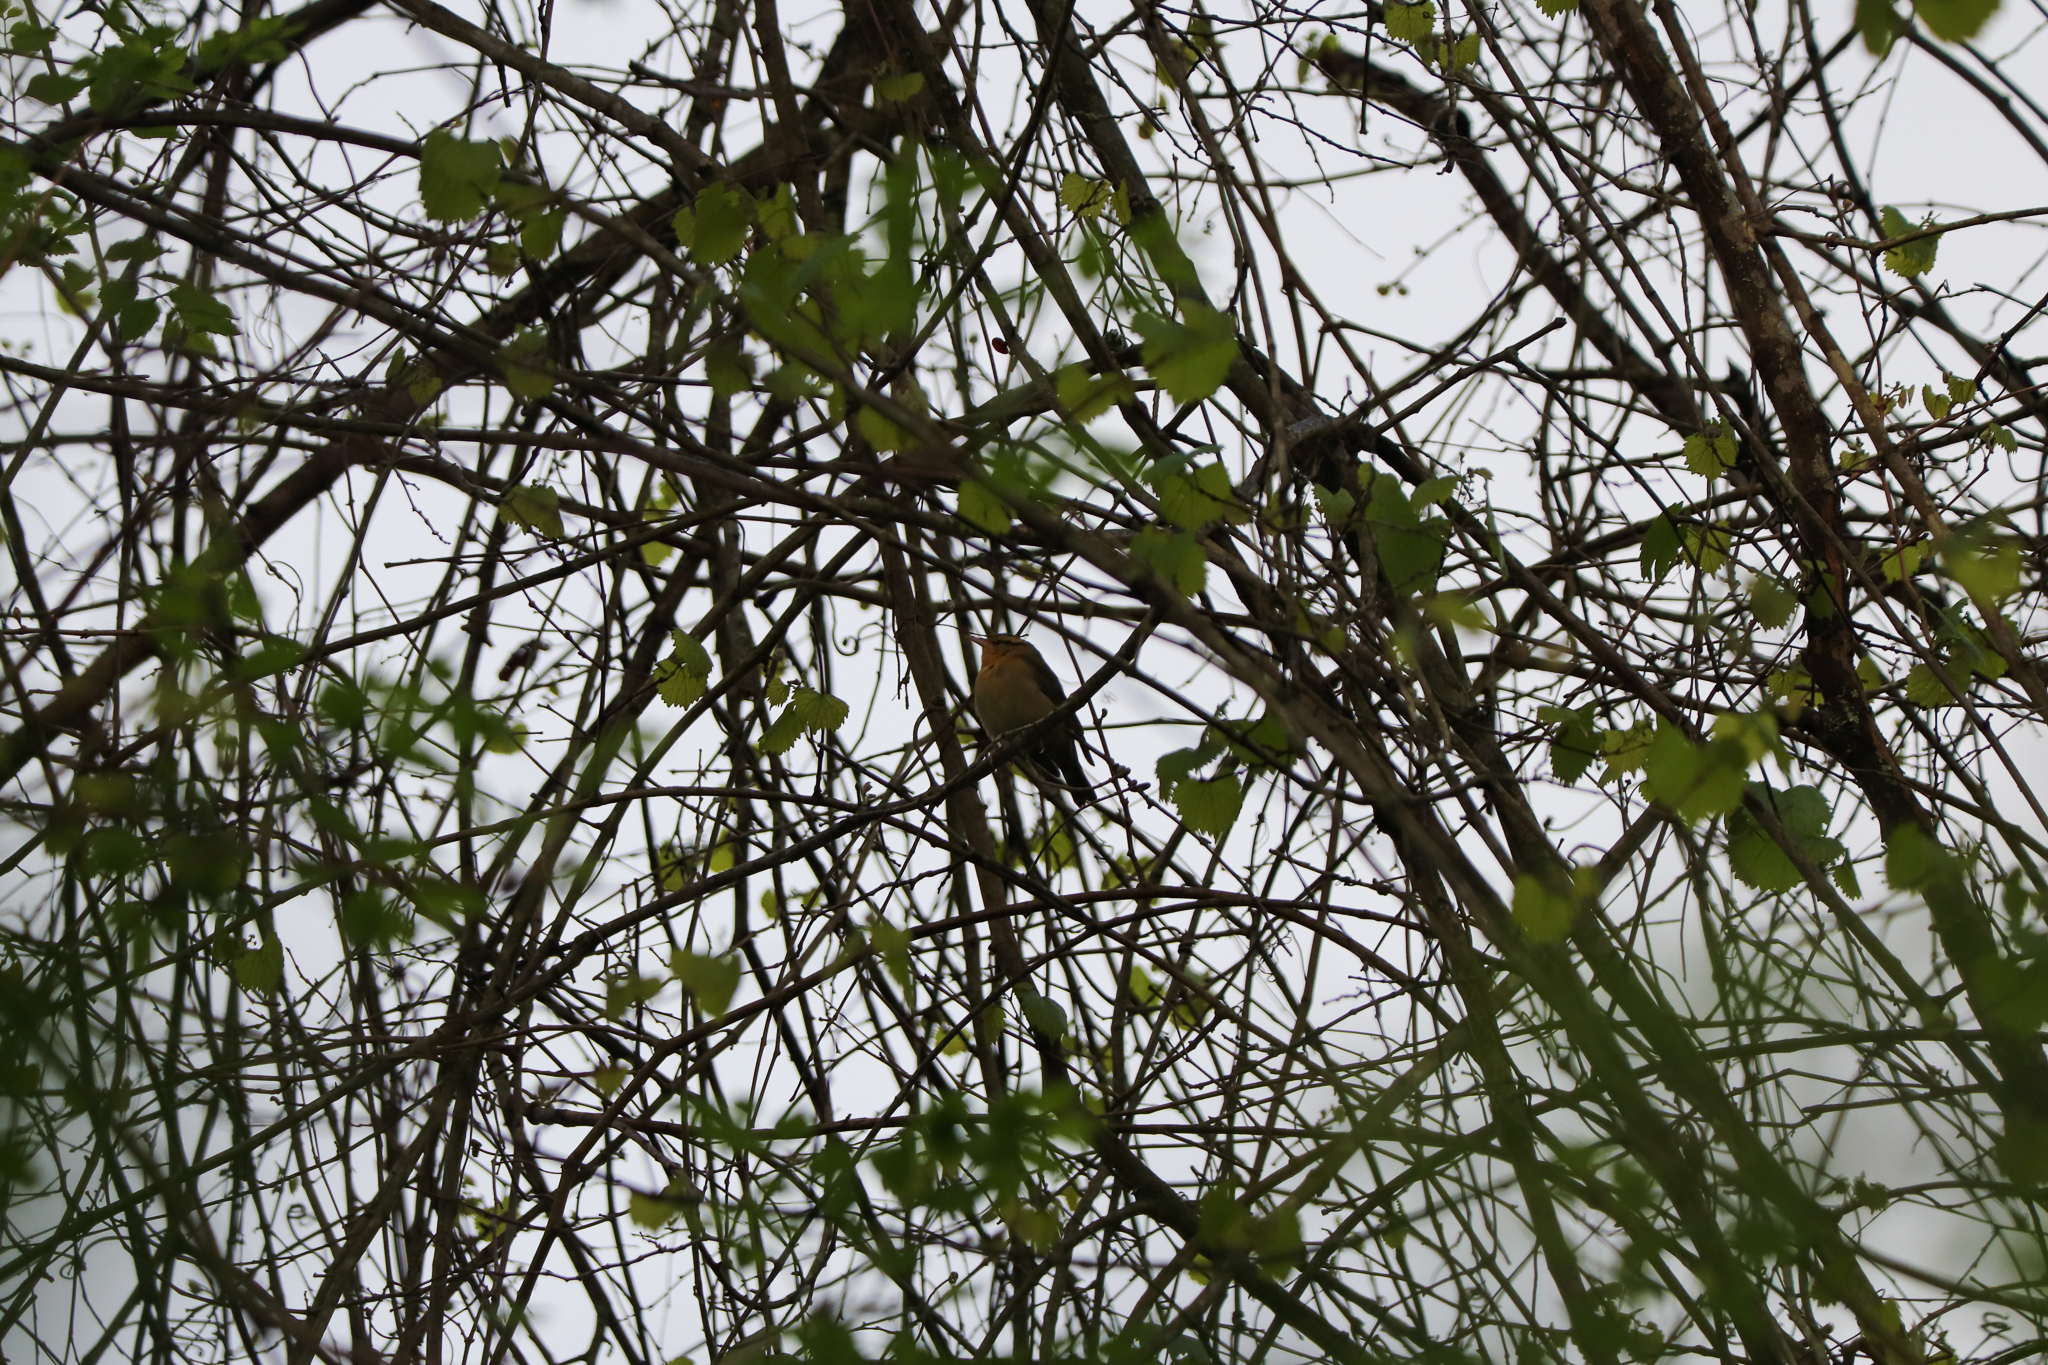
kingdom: Animalia
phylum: Chordata
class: Aves
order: Passeriformes
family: Parulidae
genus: Helmitheros
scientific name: Helmitheros vermivorum
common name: Worm-eating warbler
